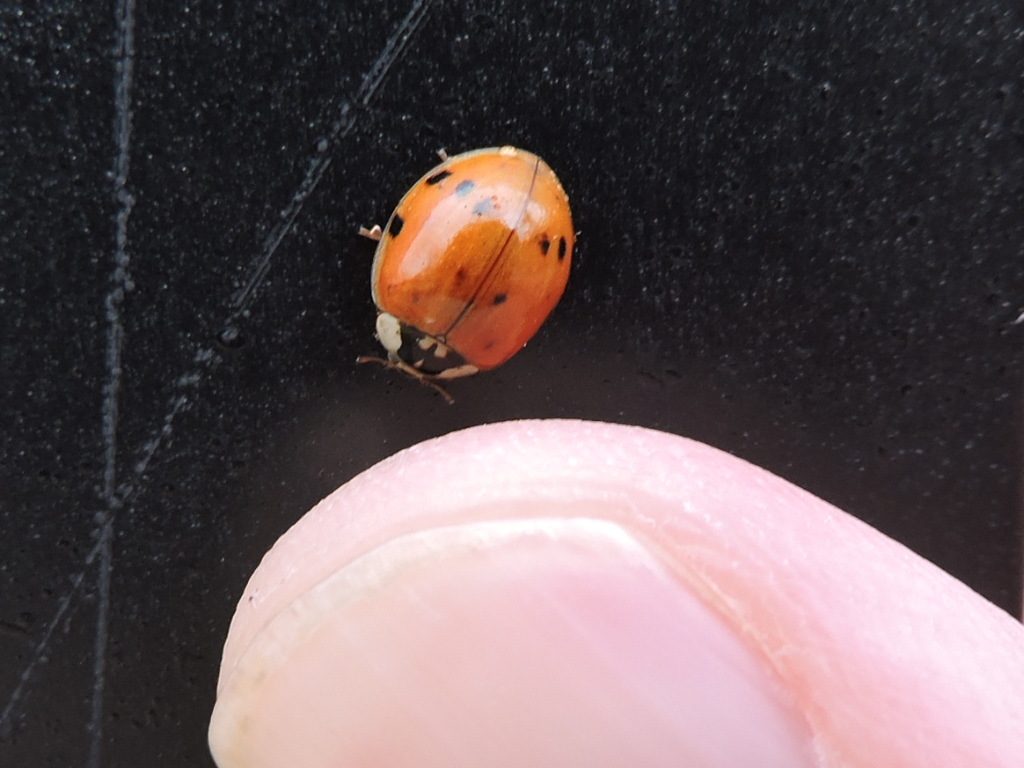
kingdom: Animalia
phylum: Arthropoda
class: Insecta
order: Coleoptera
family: Coccinellidae
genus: Harmonia
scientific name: Harmonia axyridis
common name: Harlequin ladybird
